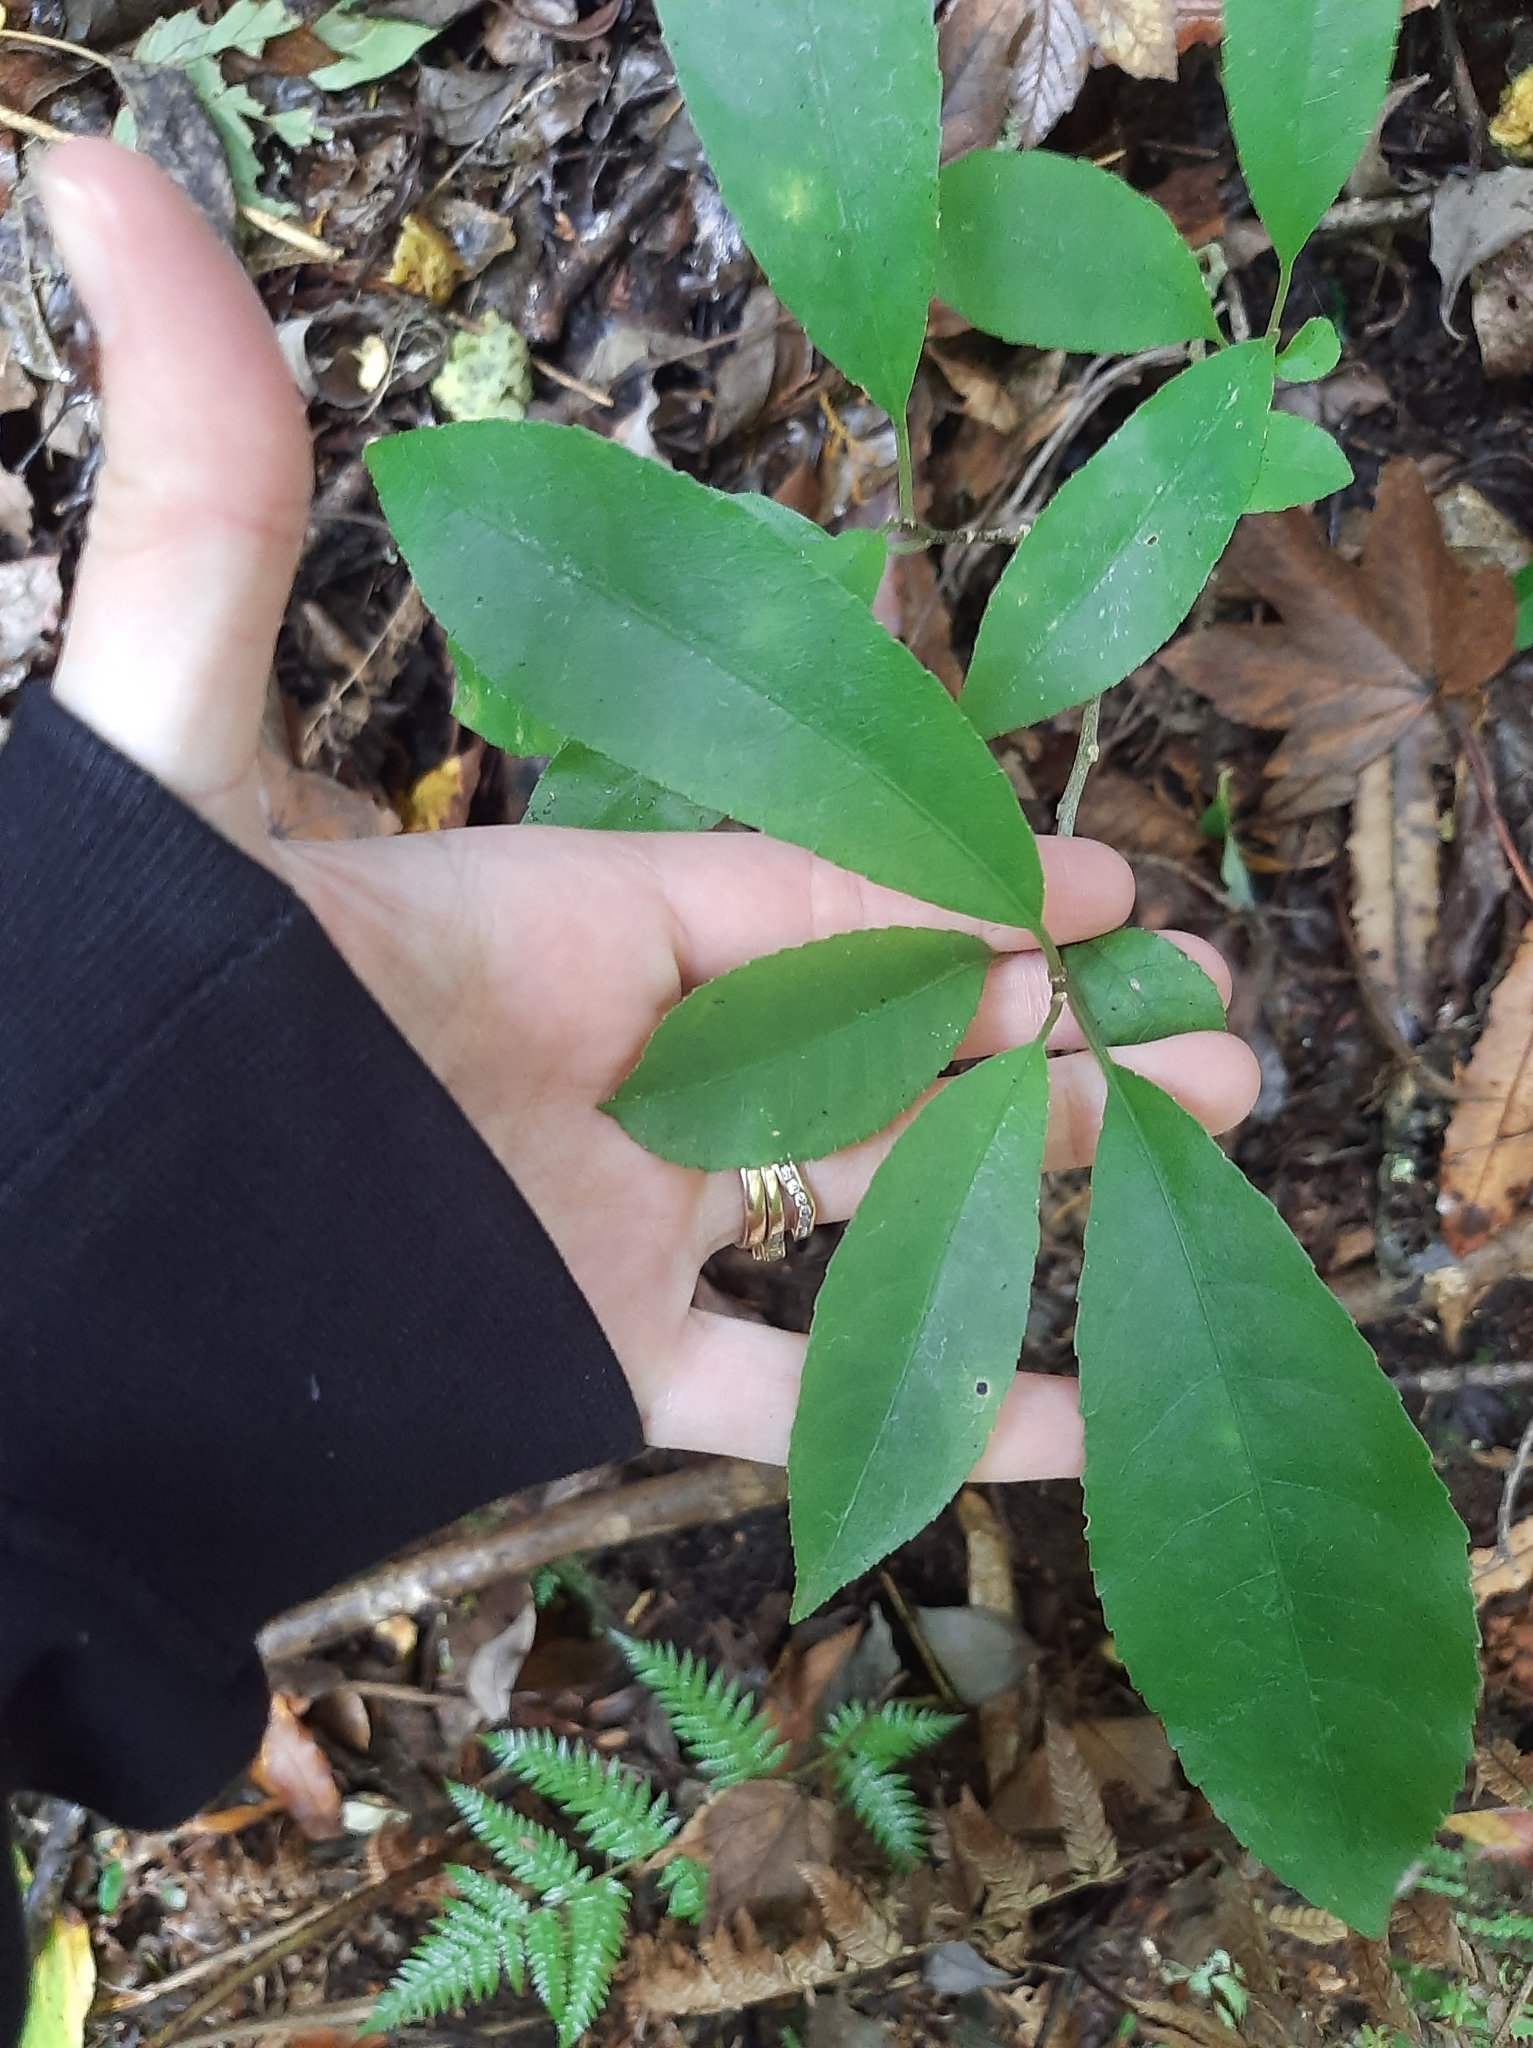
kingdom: Plantae
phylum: Tracheophyta
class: Magnoliopsida
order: Malpighiales
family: Violaceae
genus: Melicytus
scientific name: Melicytus ramiflorus
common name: Mahoe
